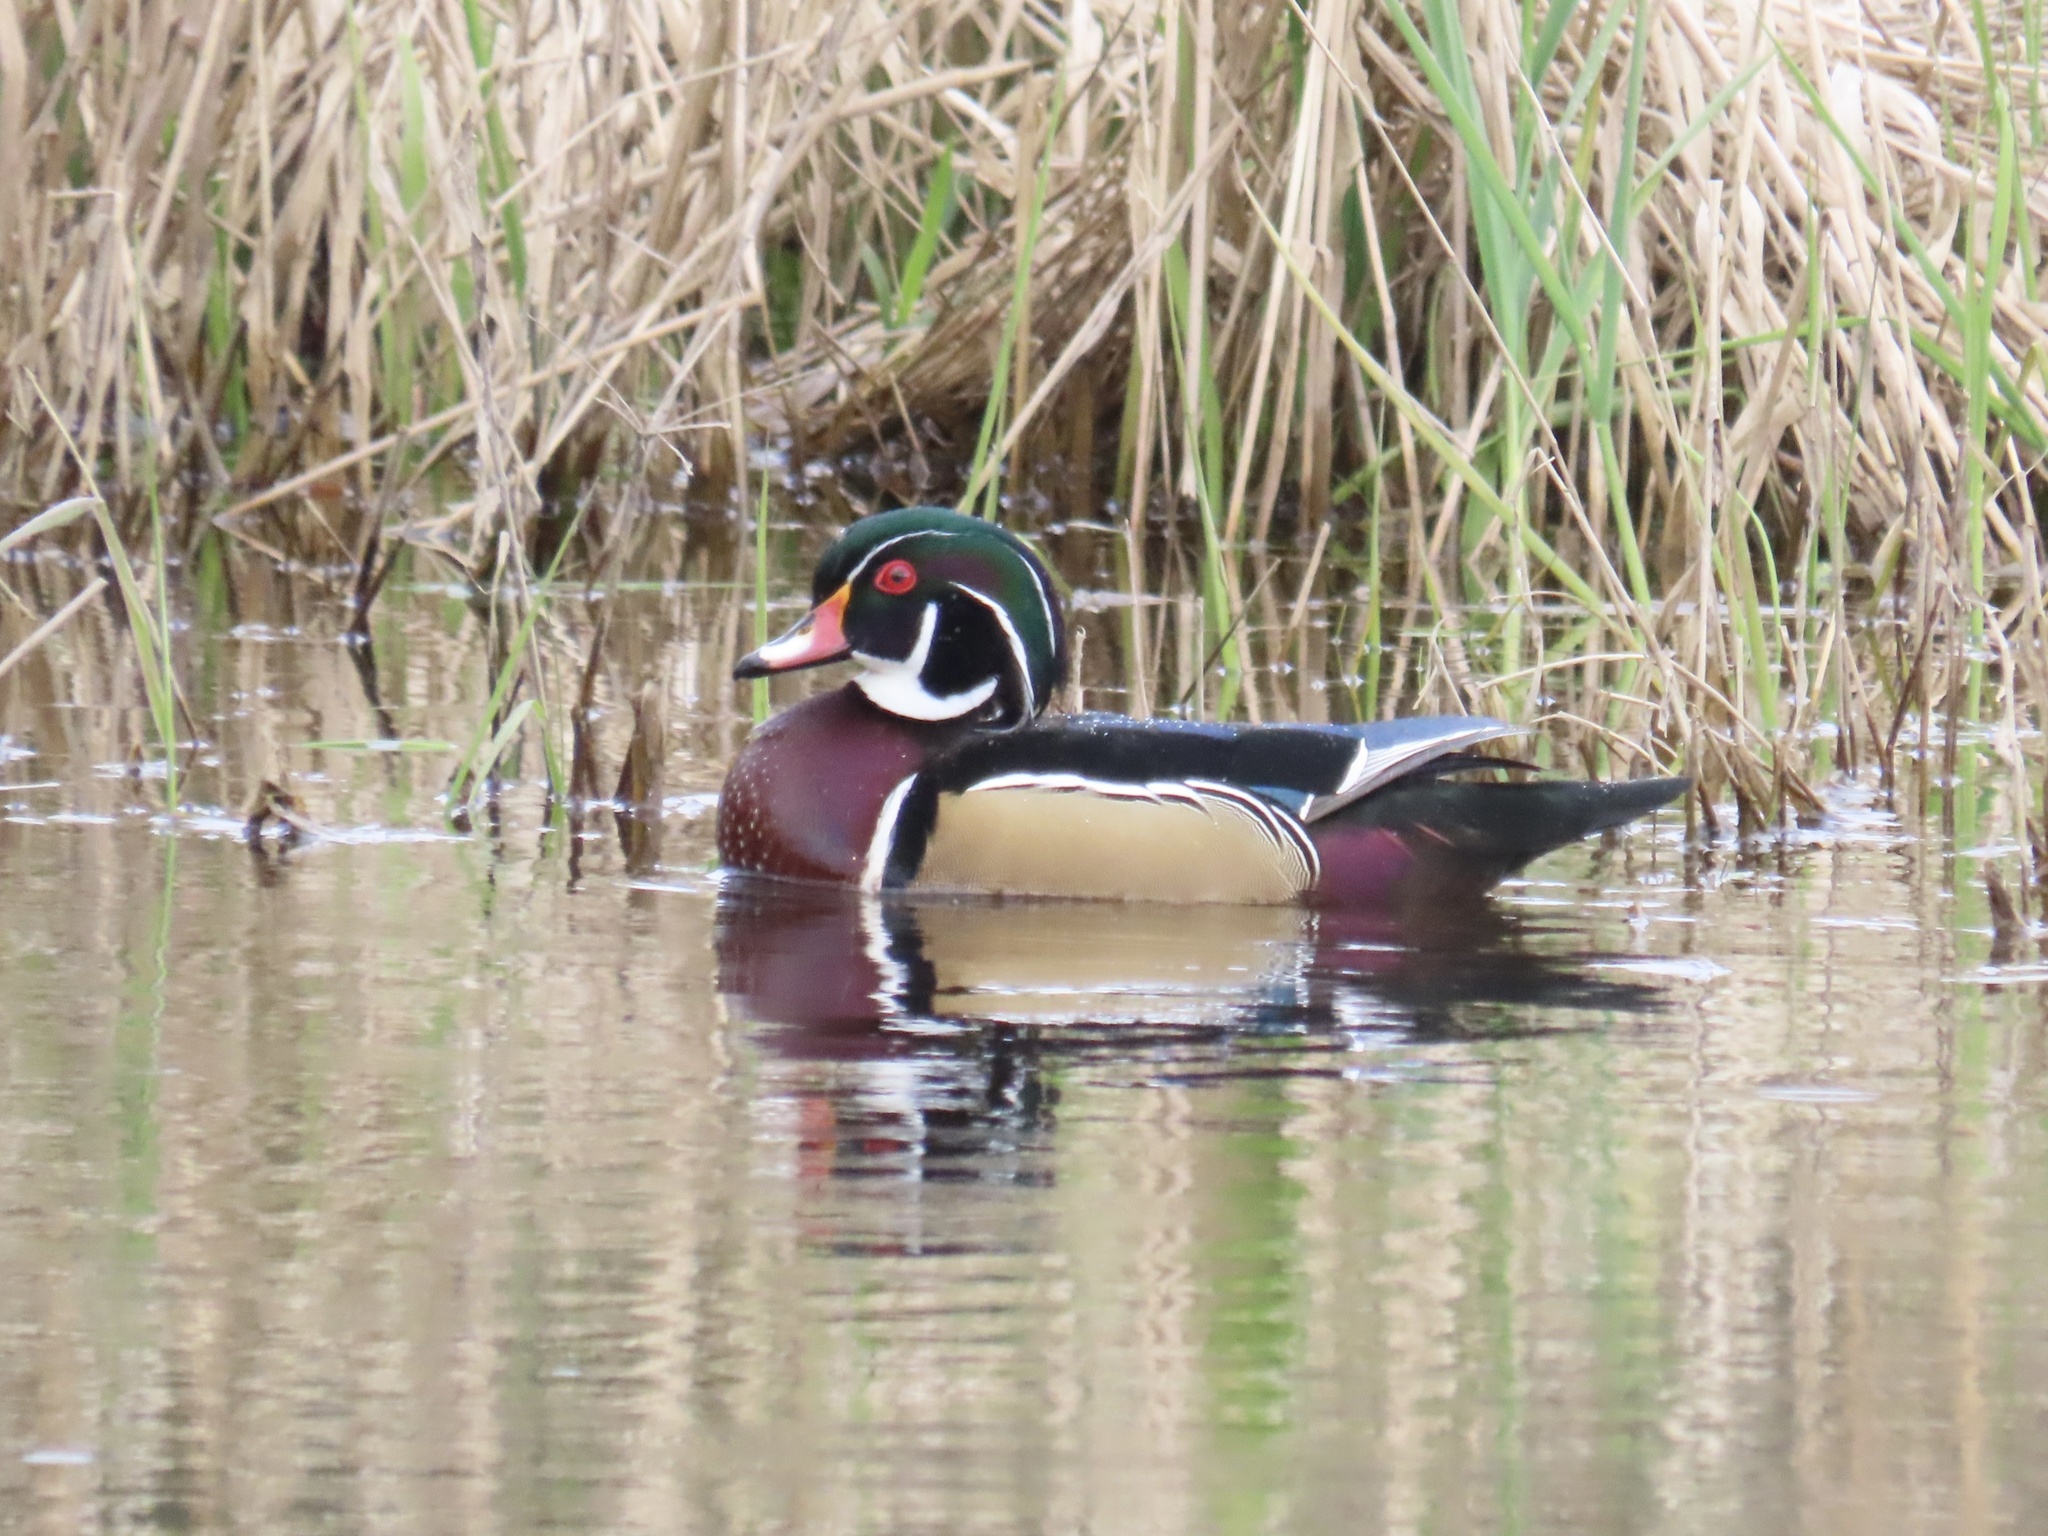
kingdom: Animalia
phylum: Chordata
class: Aves
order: Anseriformes
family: Anatidae
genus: Aix
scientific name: Aix sponsa
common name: Wood duck
